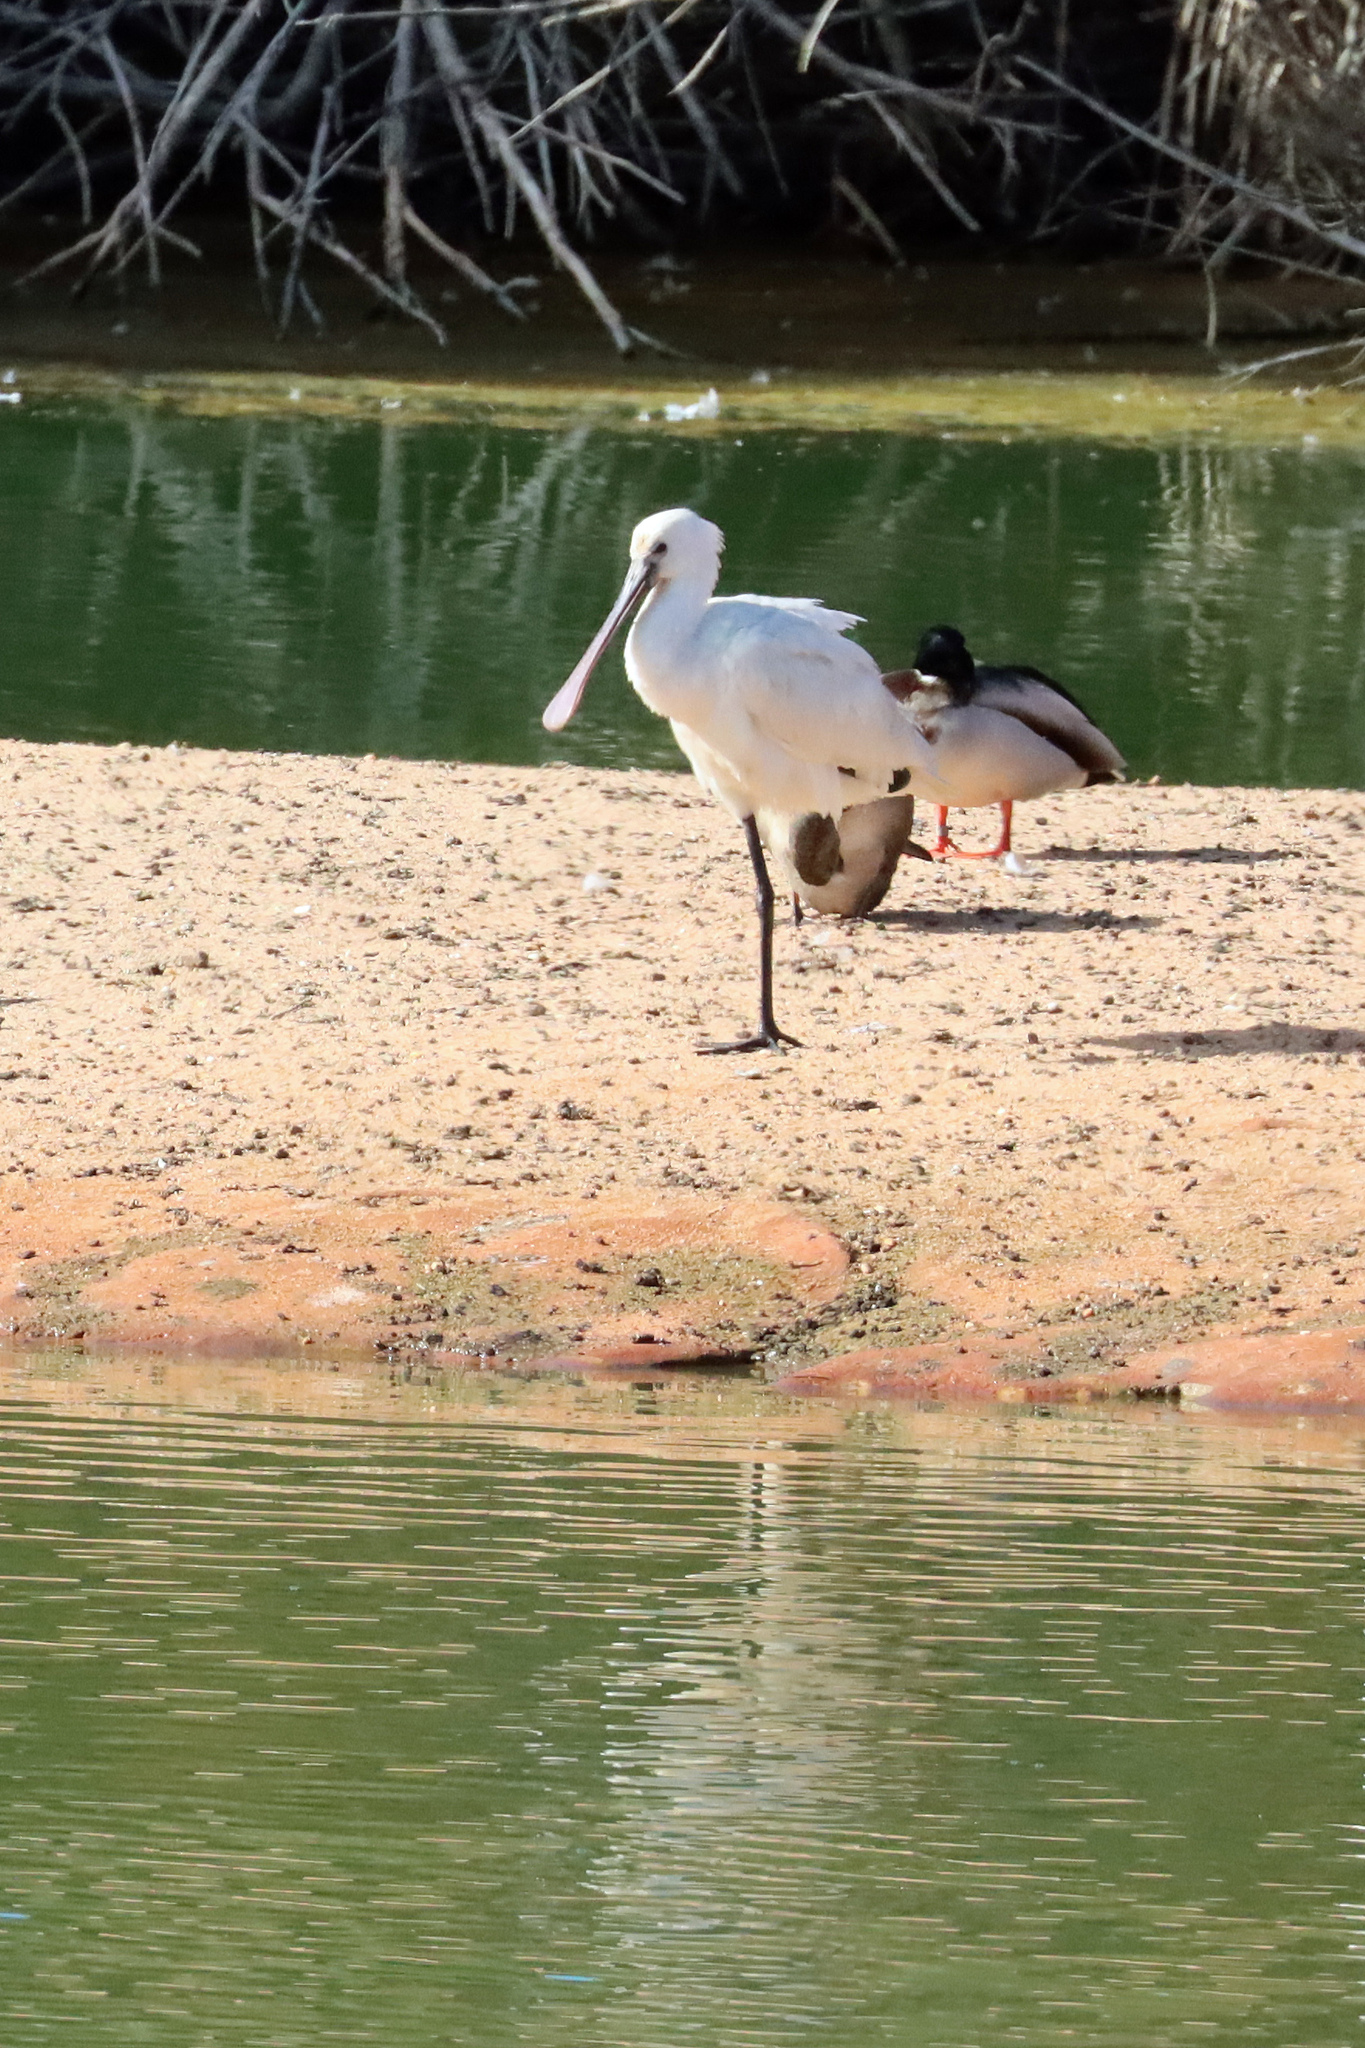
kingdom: Animalia
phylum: Chordata
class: Aves
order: Pelecaniformes
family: Threskiornithidae
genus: Platalea
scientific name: Platalea leucorodia
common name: Eurasian spoonbill
